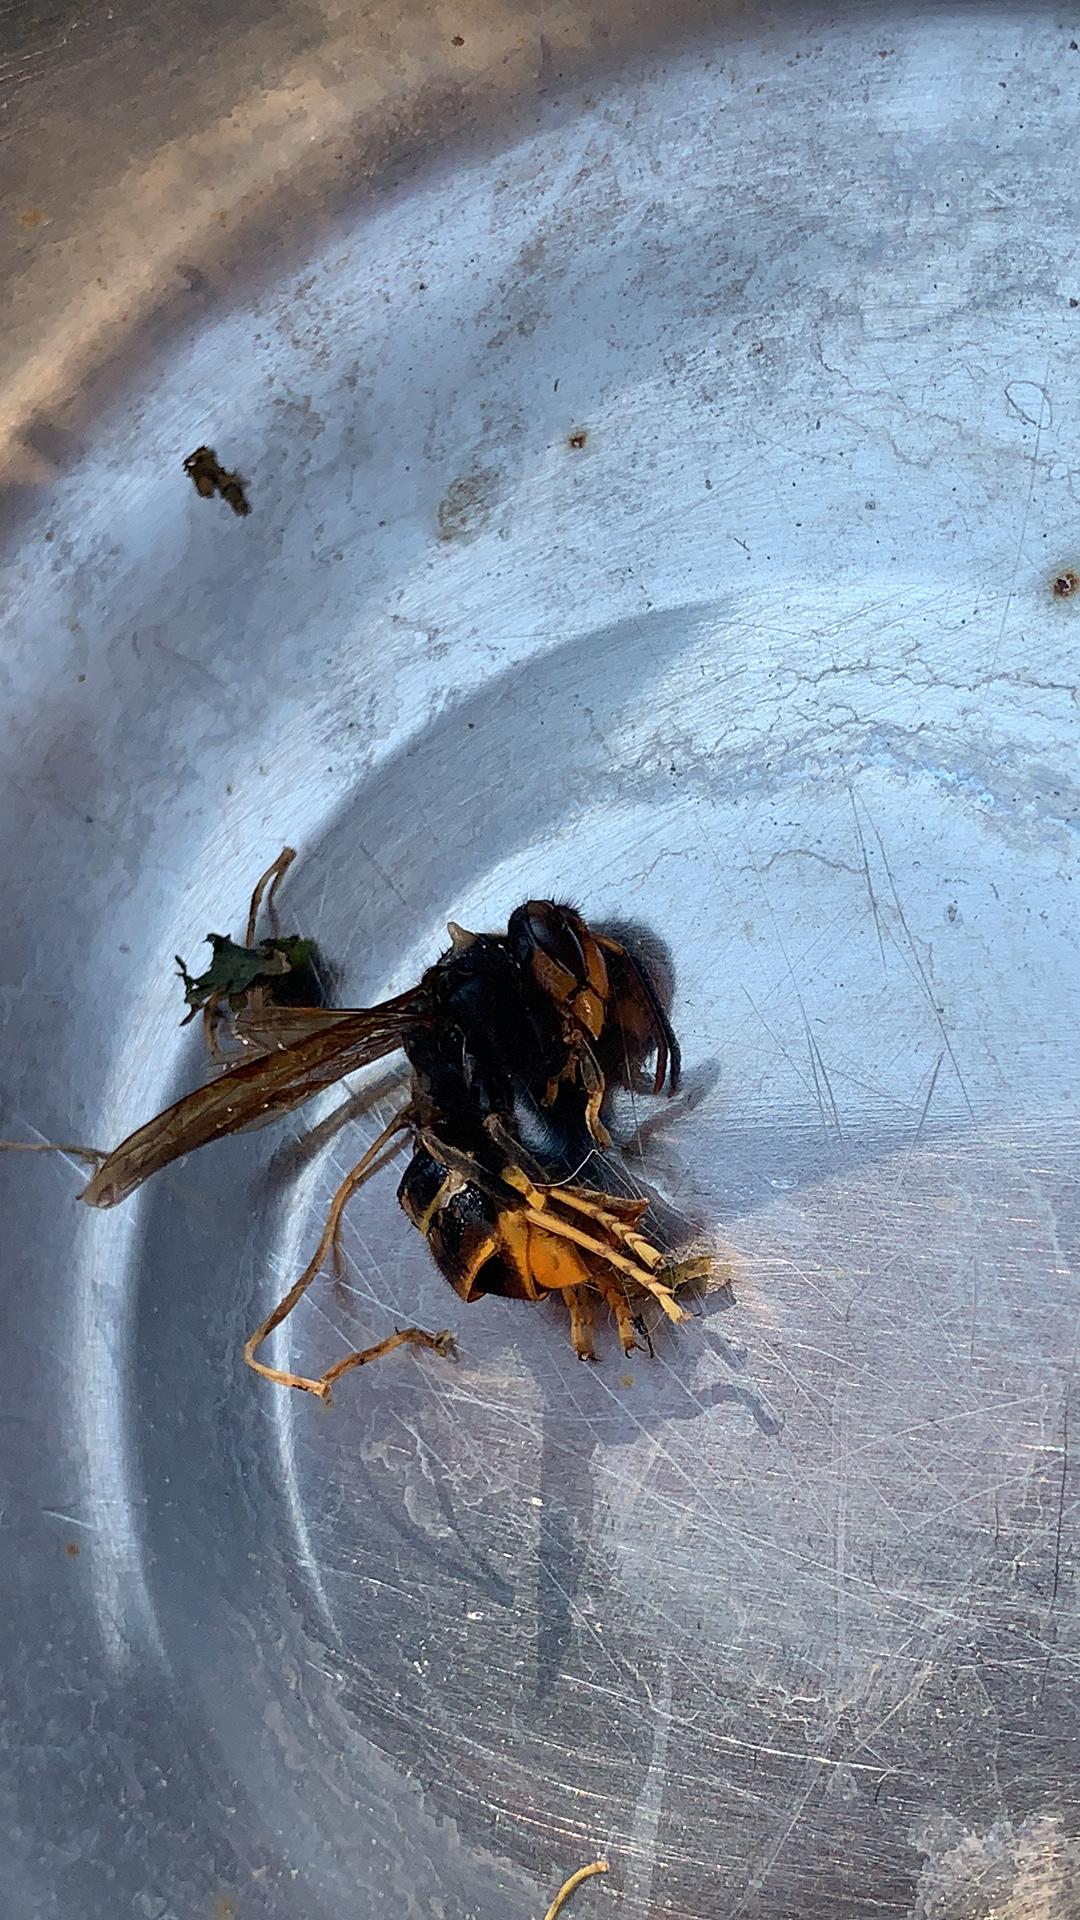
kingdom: Animalia
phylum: Arthropoda
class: Insecta
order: Hymenoptera
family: Vespidae
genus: Vespa
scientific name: Vespa velutina
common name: Asian hornet
